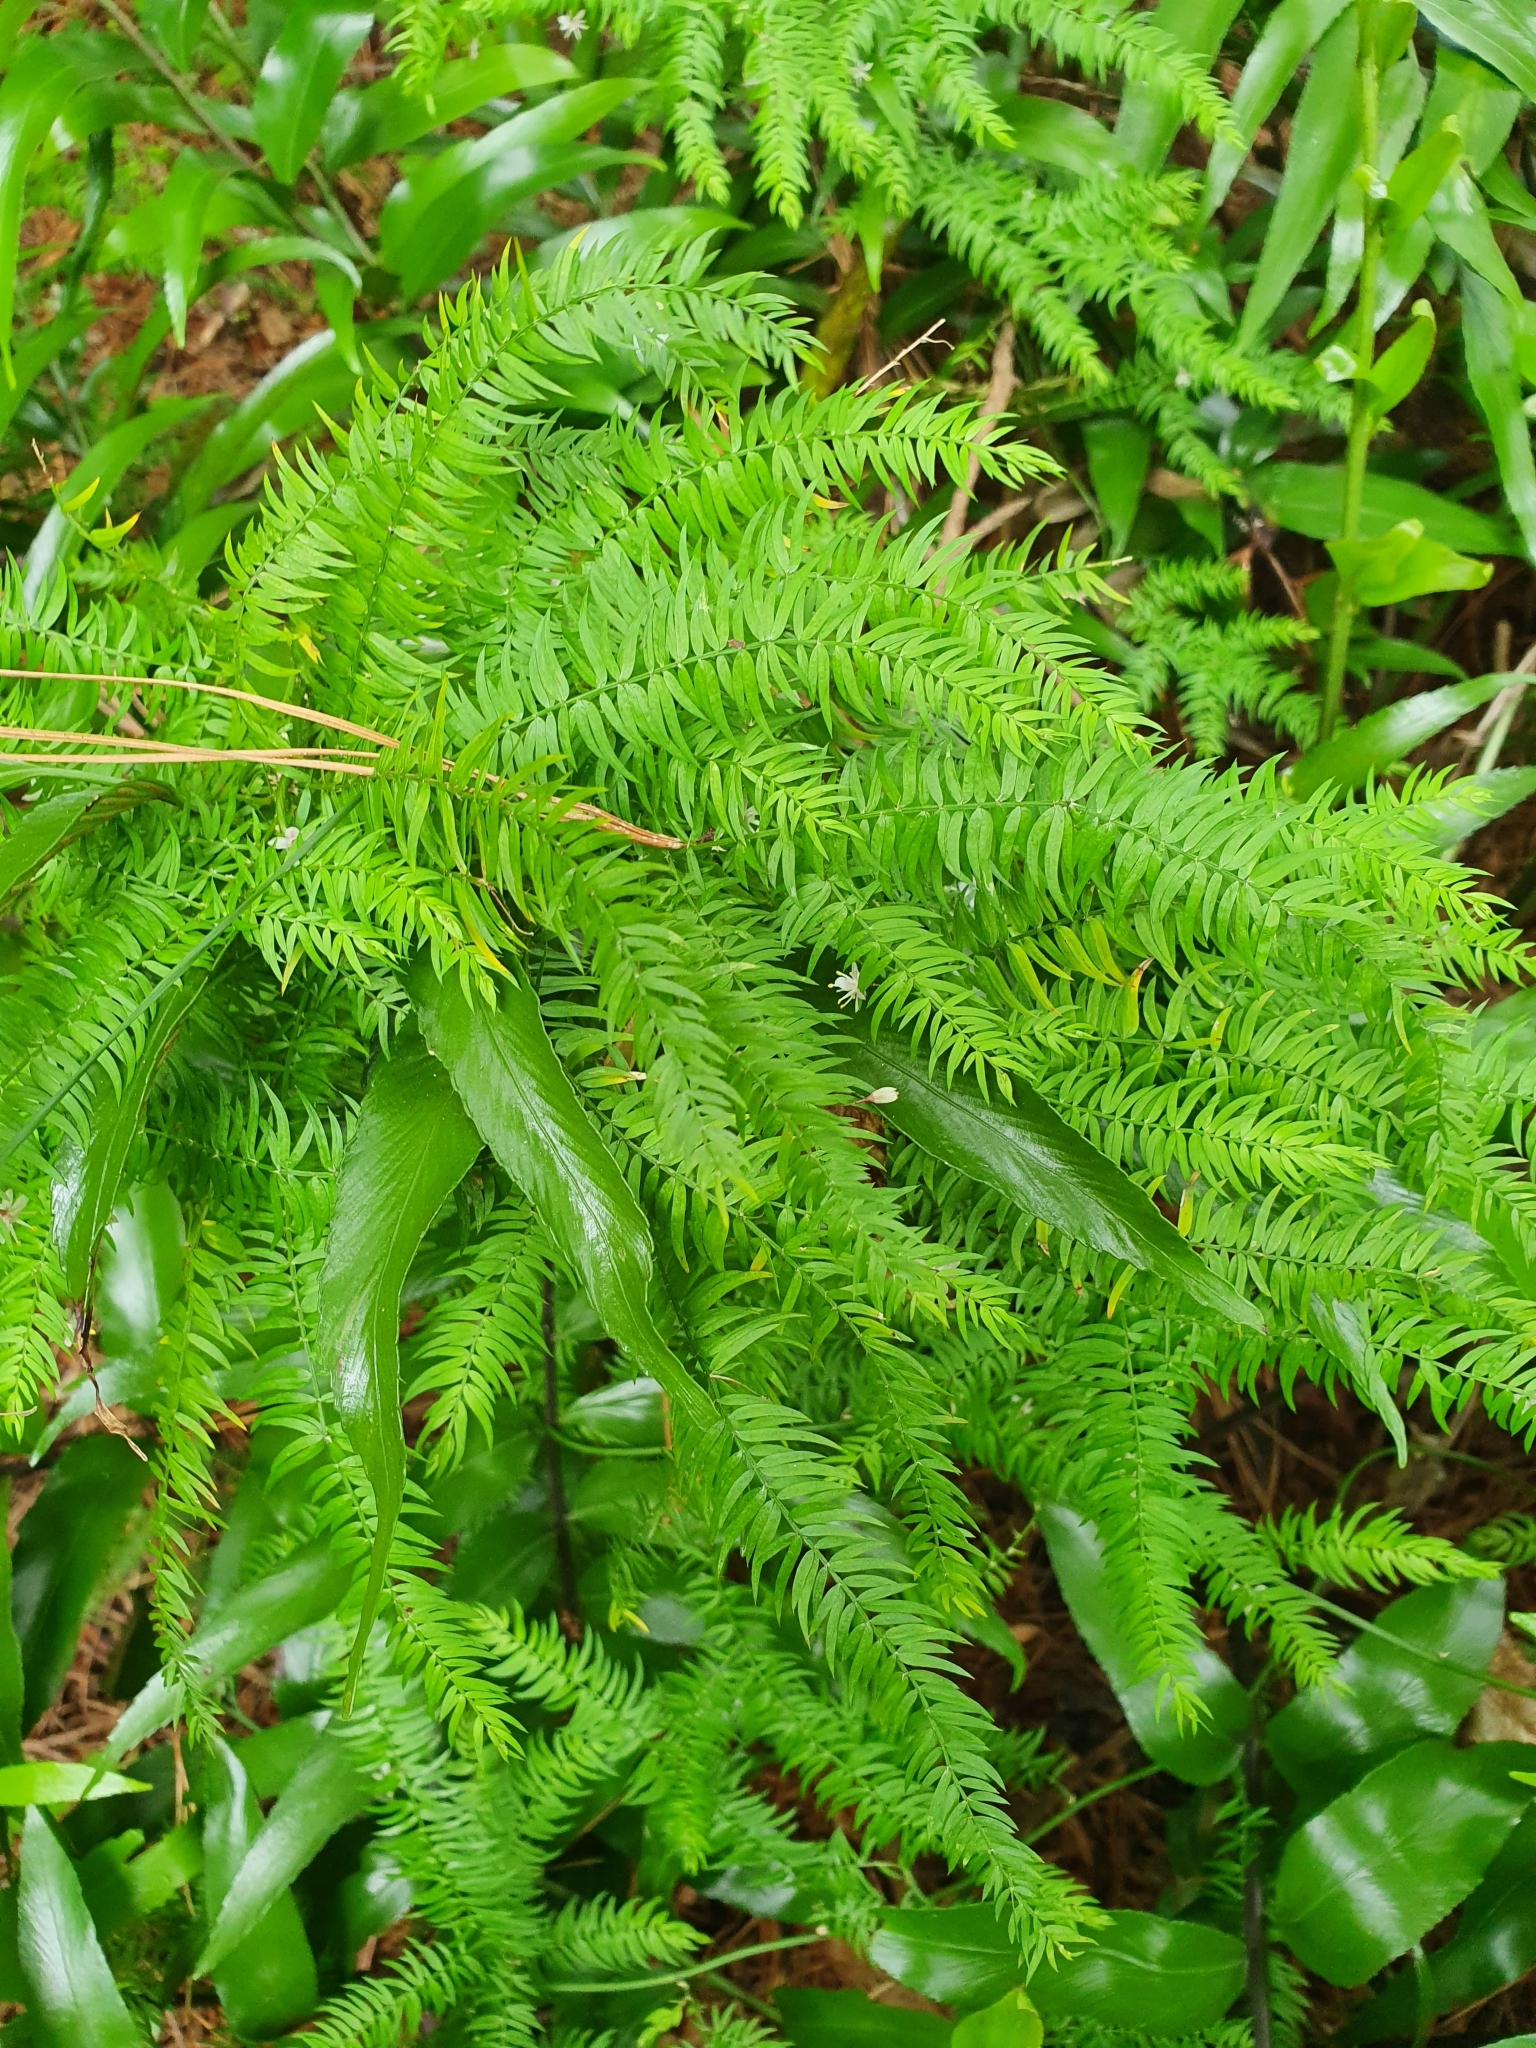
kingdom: Plantae
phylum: Tracheophyta
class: Liliopsida
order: Asparagales
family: Asparagaceae
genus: Asparagus
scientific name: Asparagus scandens
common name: Asparagus-fern
